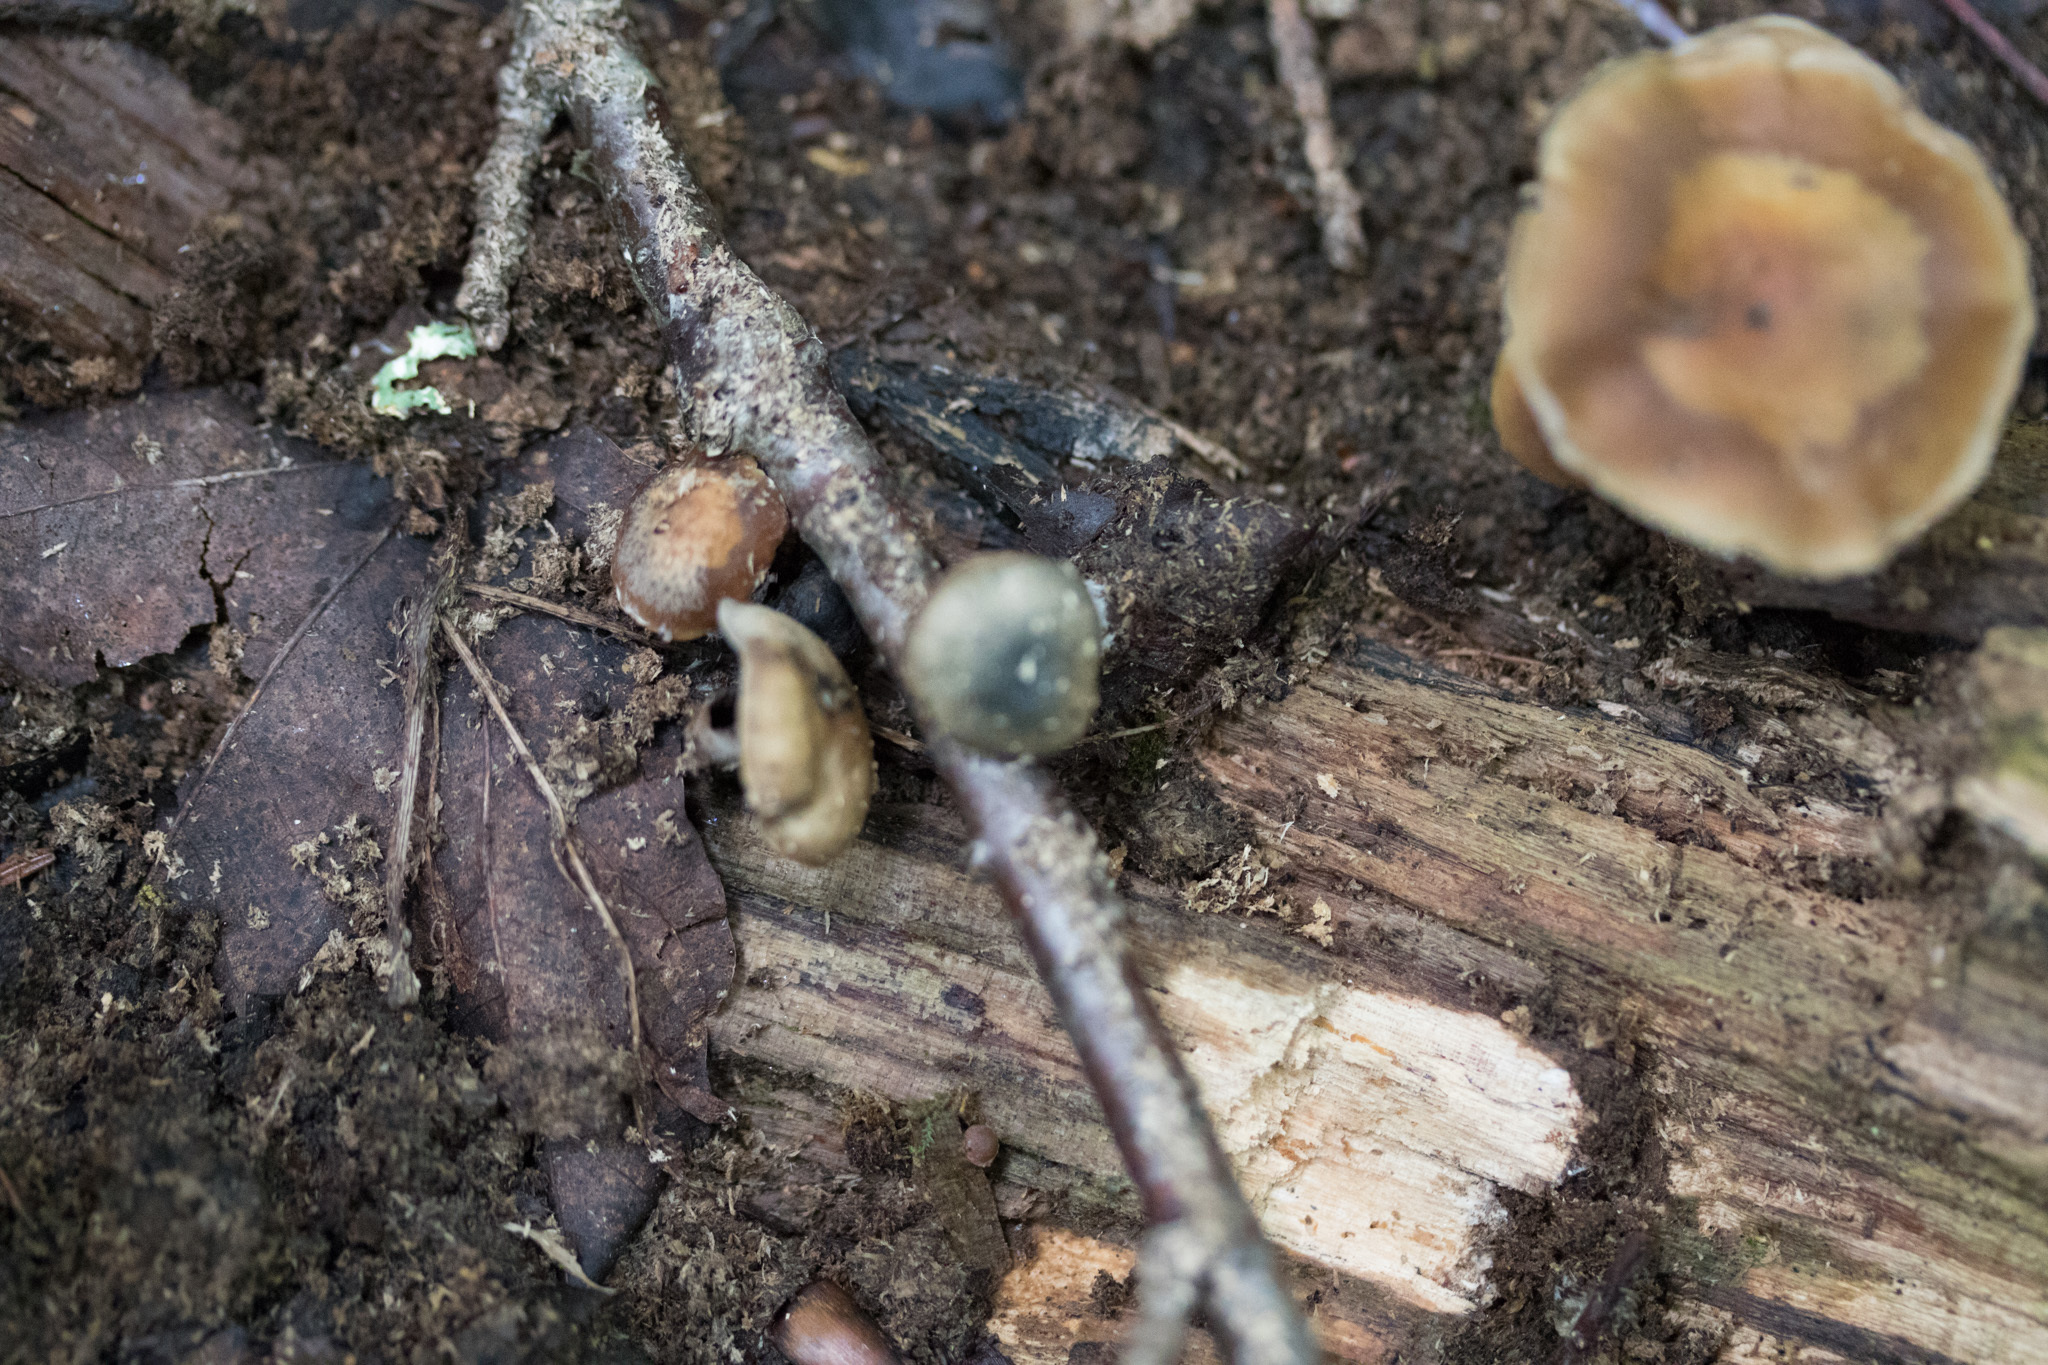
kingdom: Fungi
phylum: Basidiomycota
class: Agaricomycetes
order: Agaricales
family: Hymenogastraceae
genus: Psilocybe
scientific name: Psilocybe caerulipes
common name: Blue-foot
